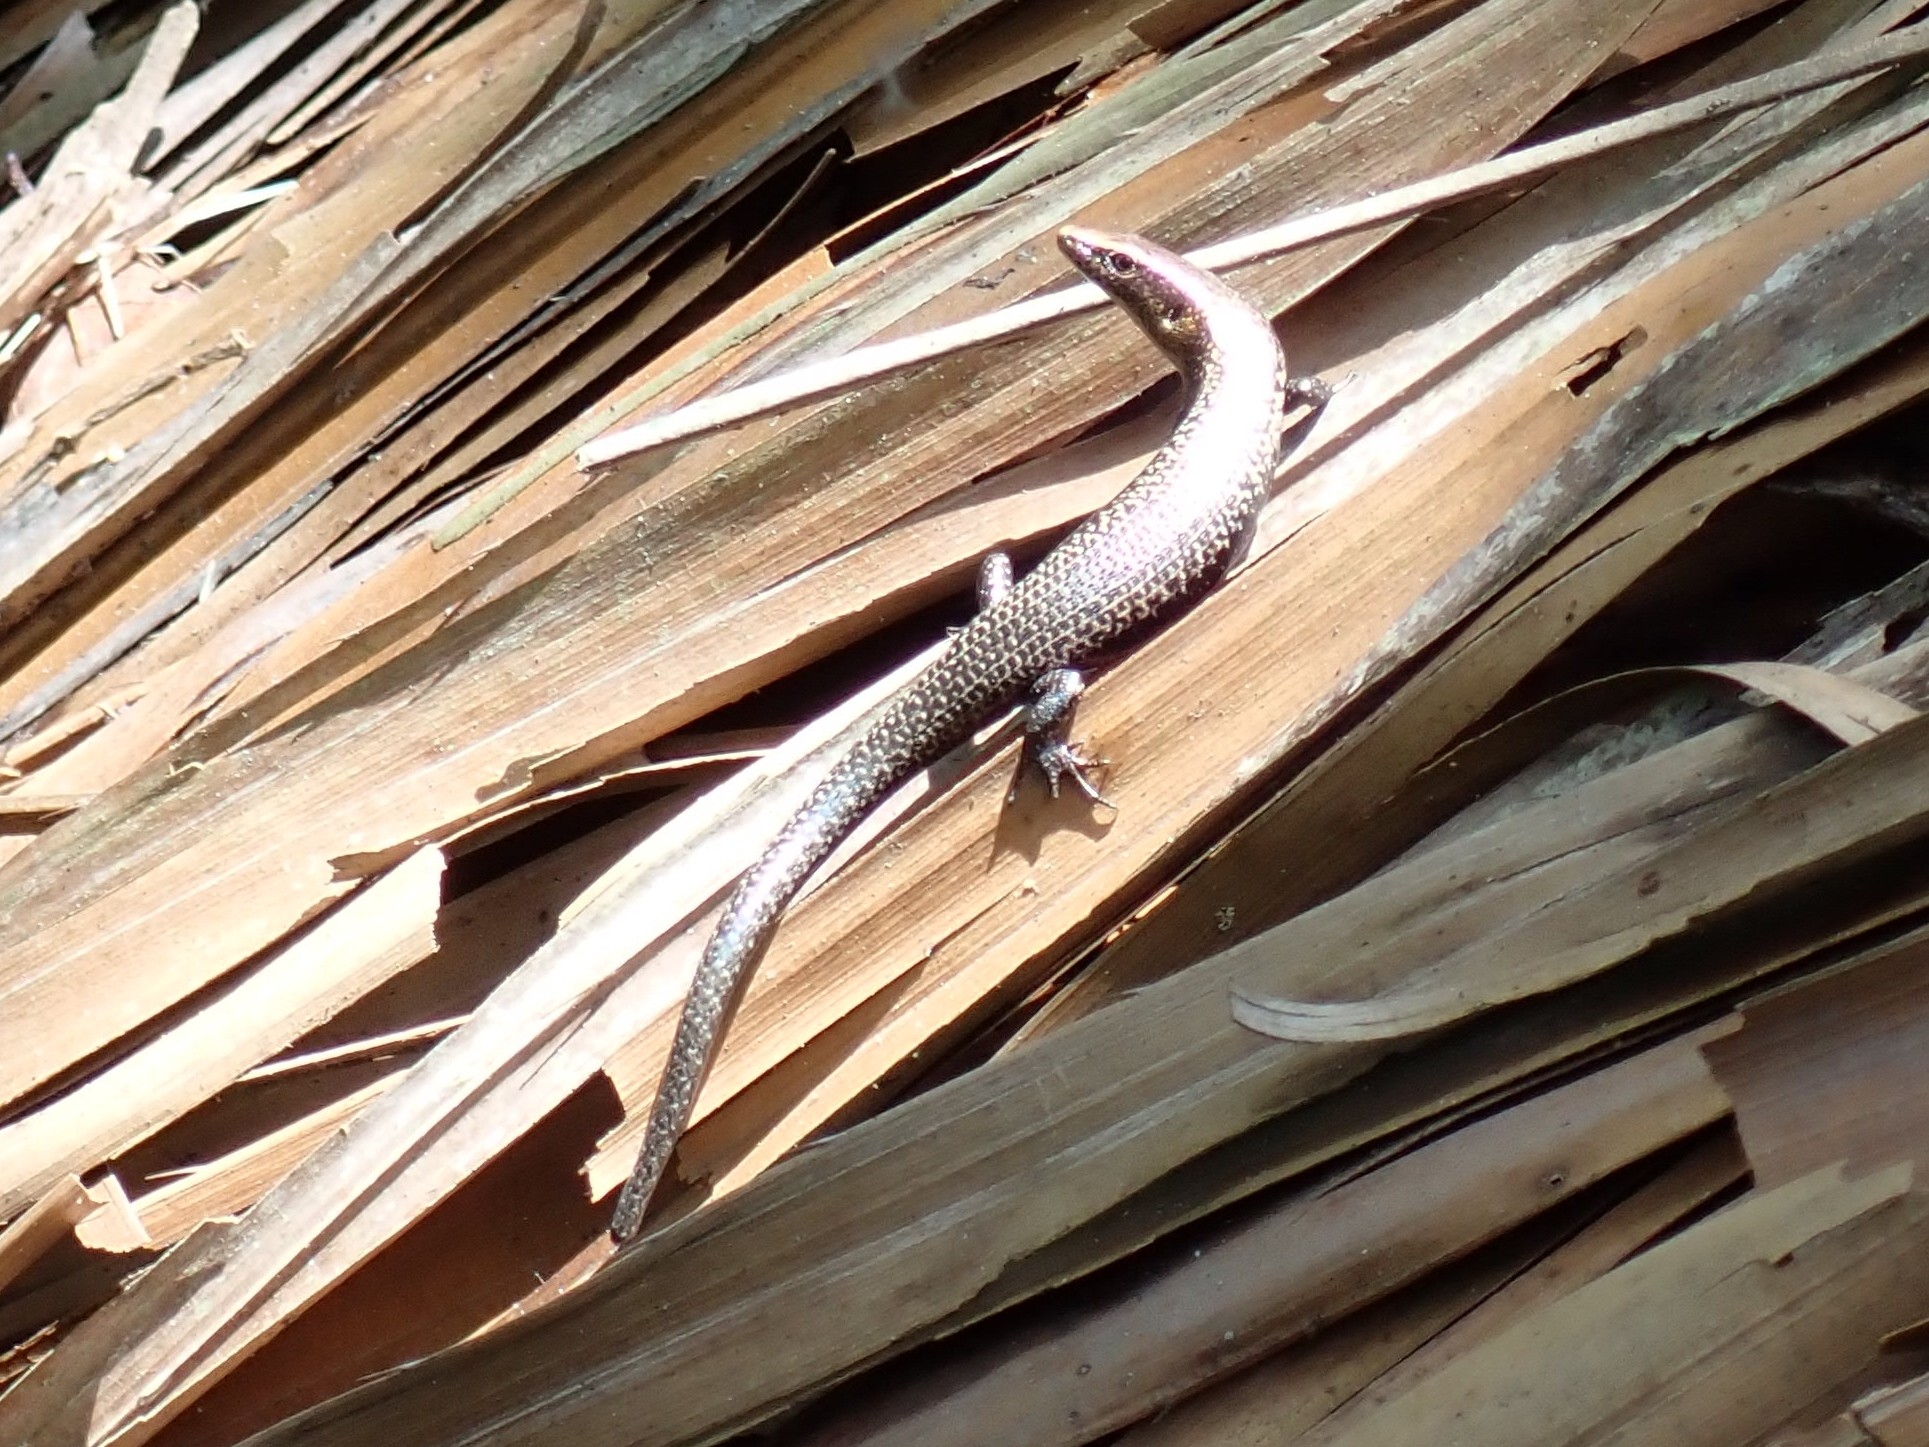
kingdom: Animalia
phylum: Chordata
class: Squamata
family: Scincidae
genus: Caledoniscincus
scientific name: Caledoniscincus atropunctatus
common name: Speckled litter skink
